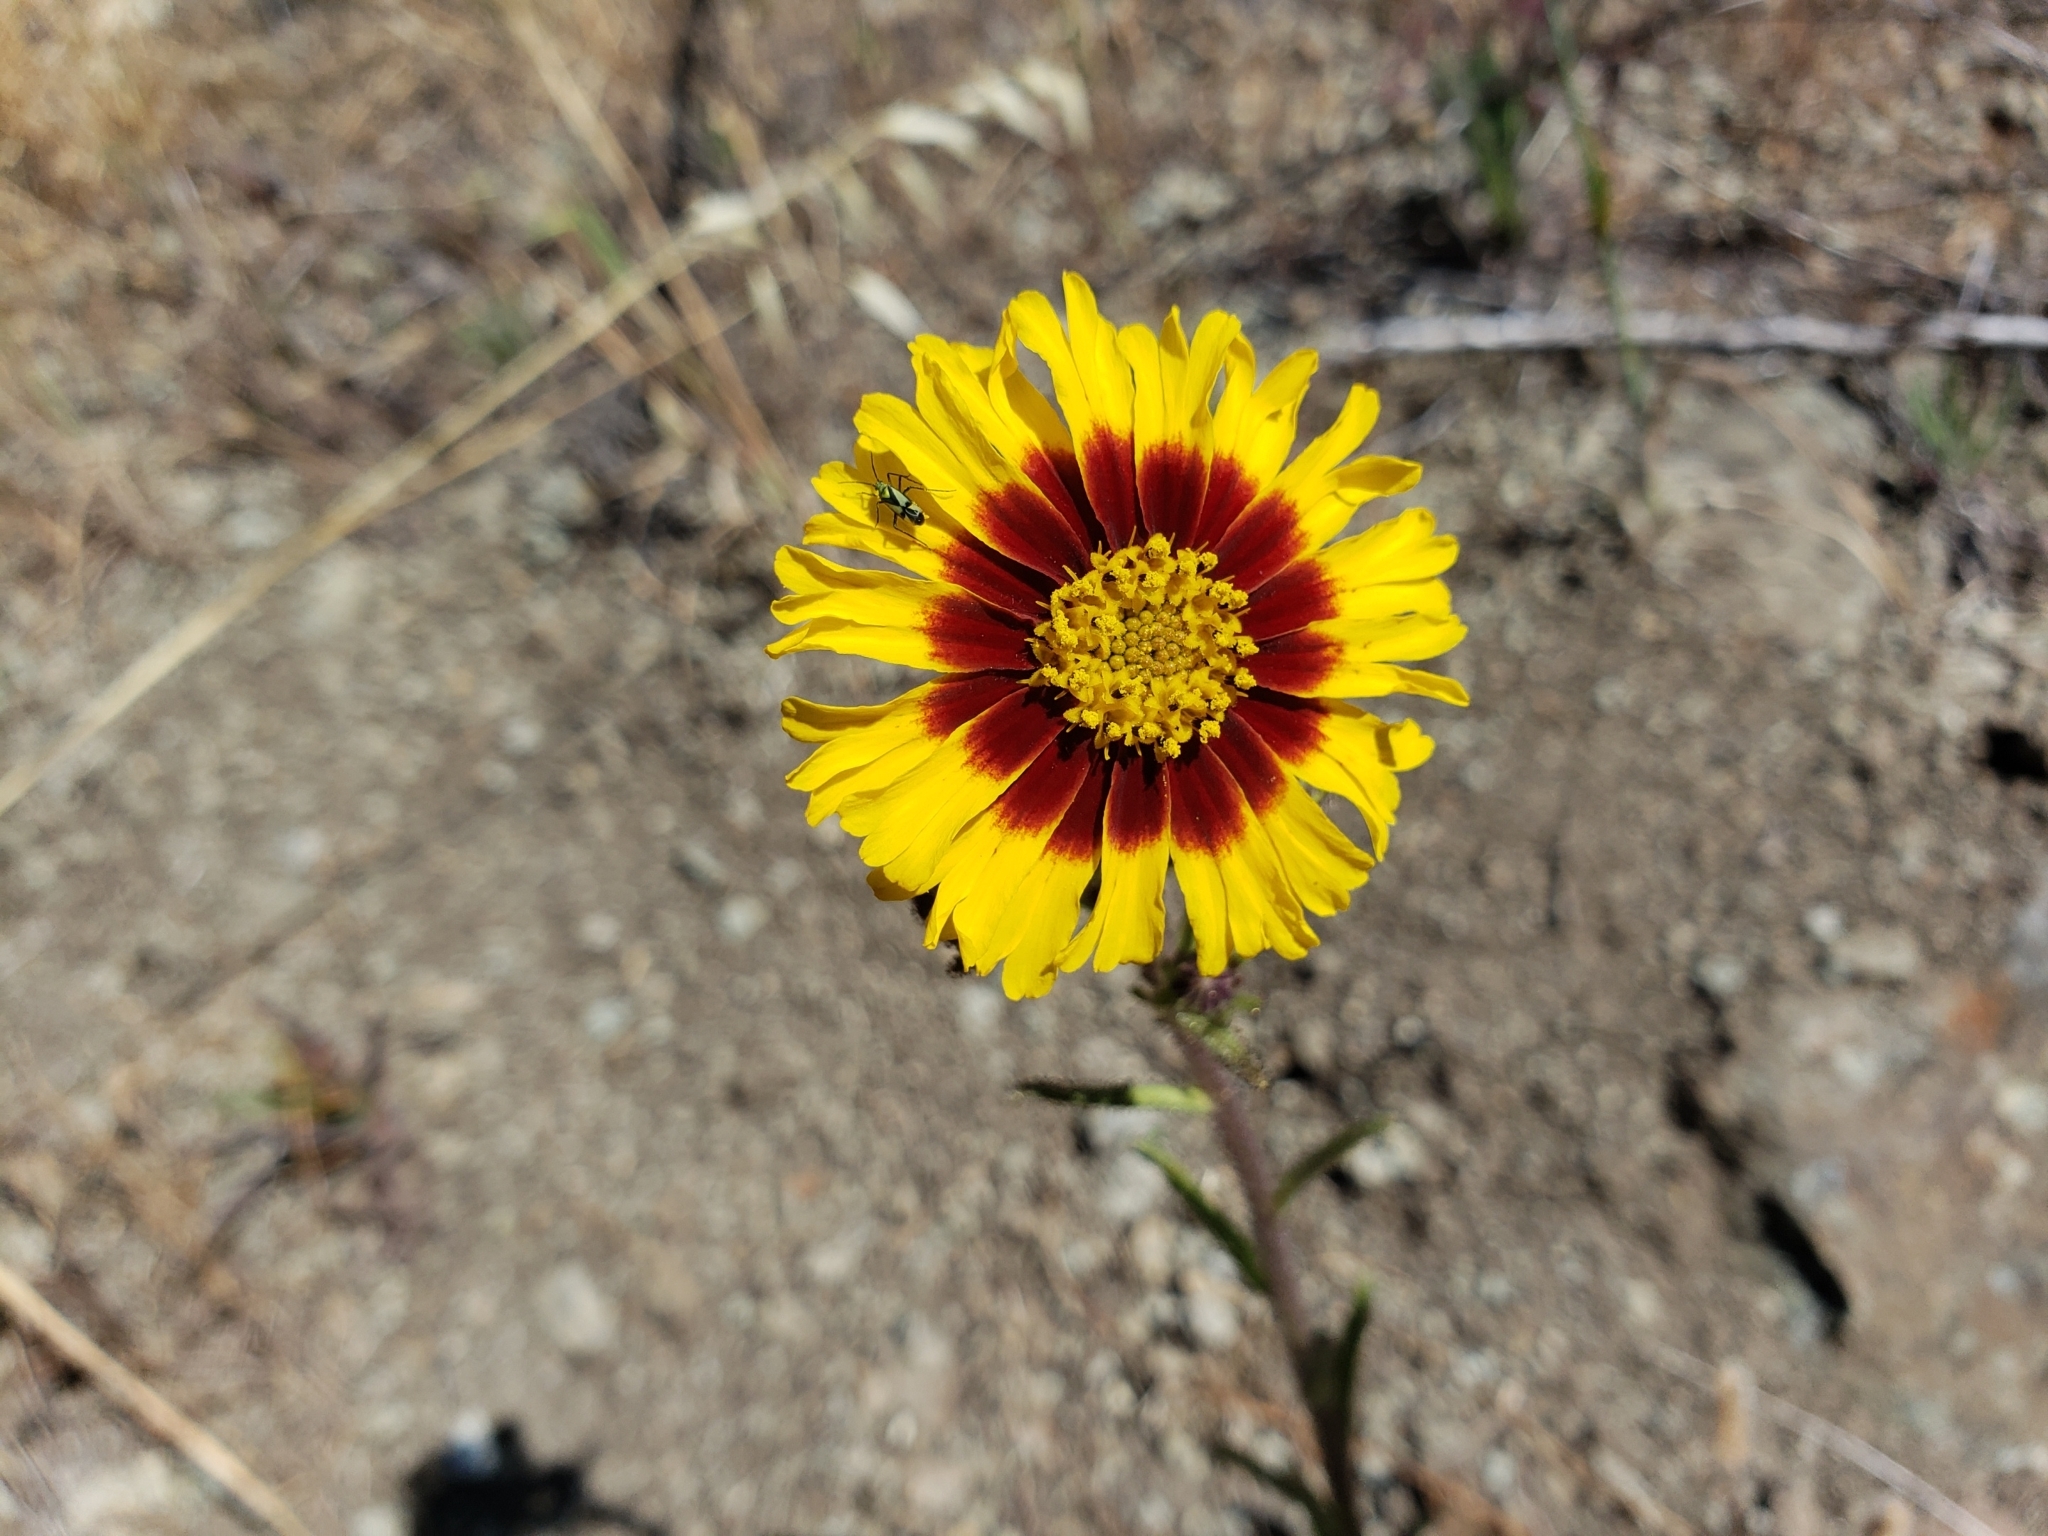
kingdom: Plantae
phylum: Tracheophyta
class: Magnoliopsida
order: Asterales
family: Asteraceae
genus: Madia
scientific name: Madia elegans
